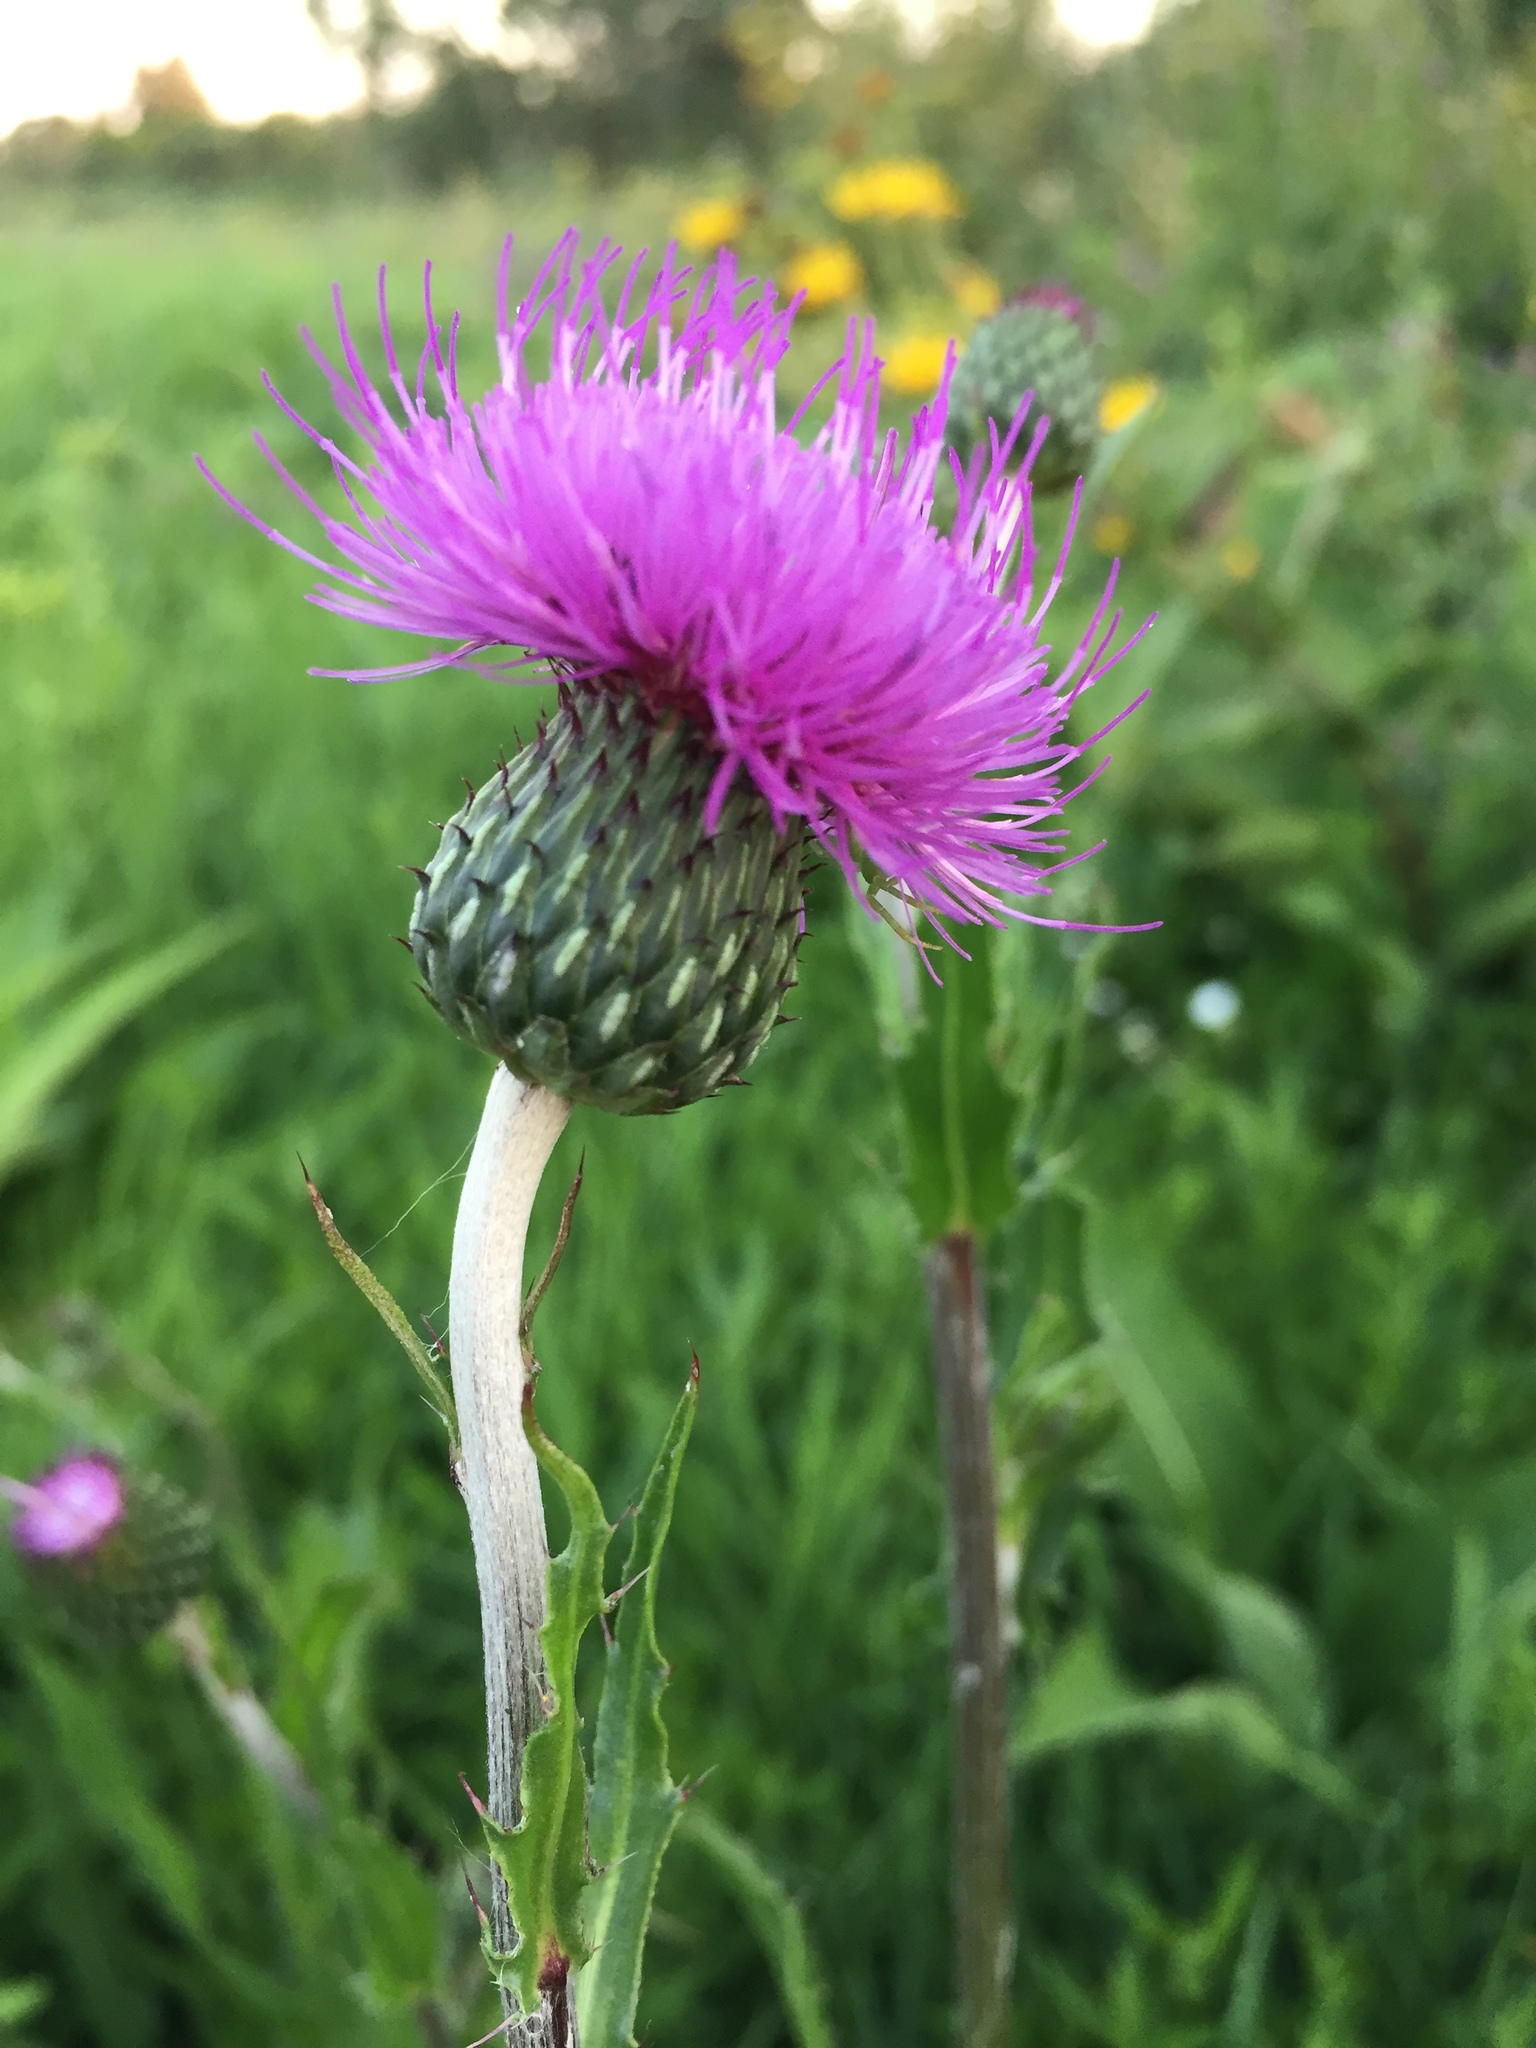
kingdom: Plantae
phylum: Tracheophyta
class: Magnoliopsida
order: Asterales
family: Asteraceae
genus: Cirsium
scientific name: Cirsium canum
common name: Queen anne's thistle
